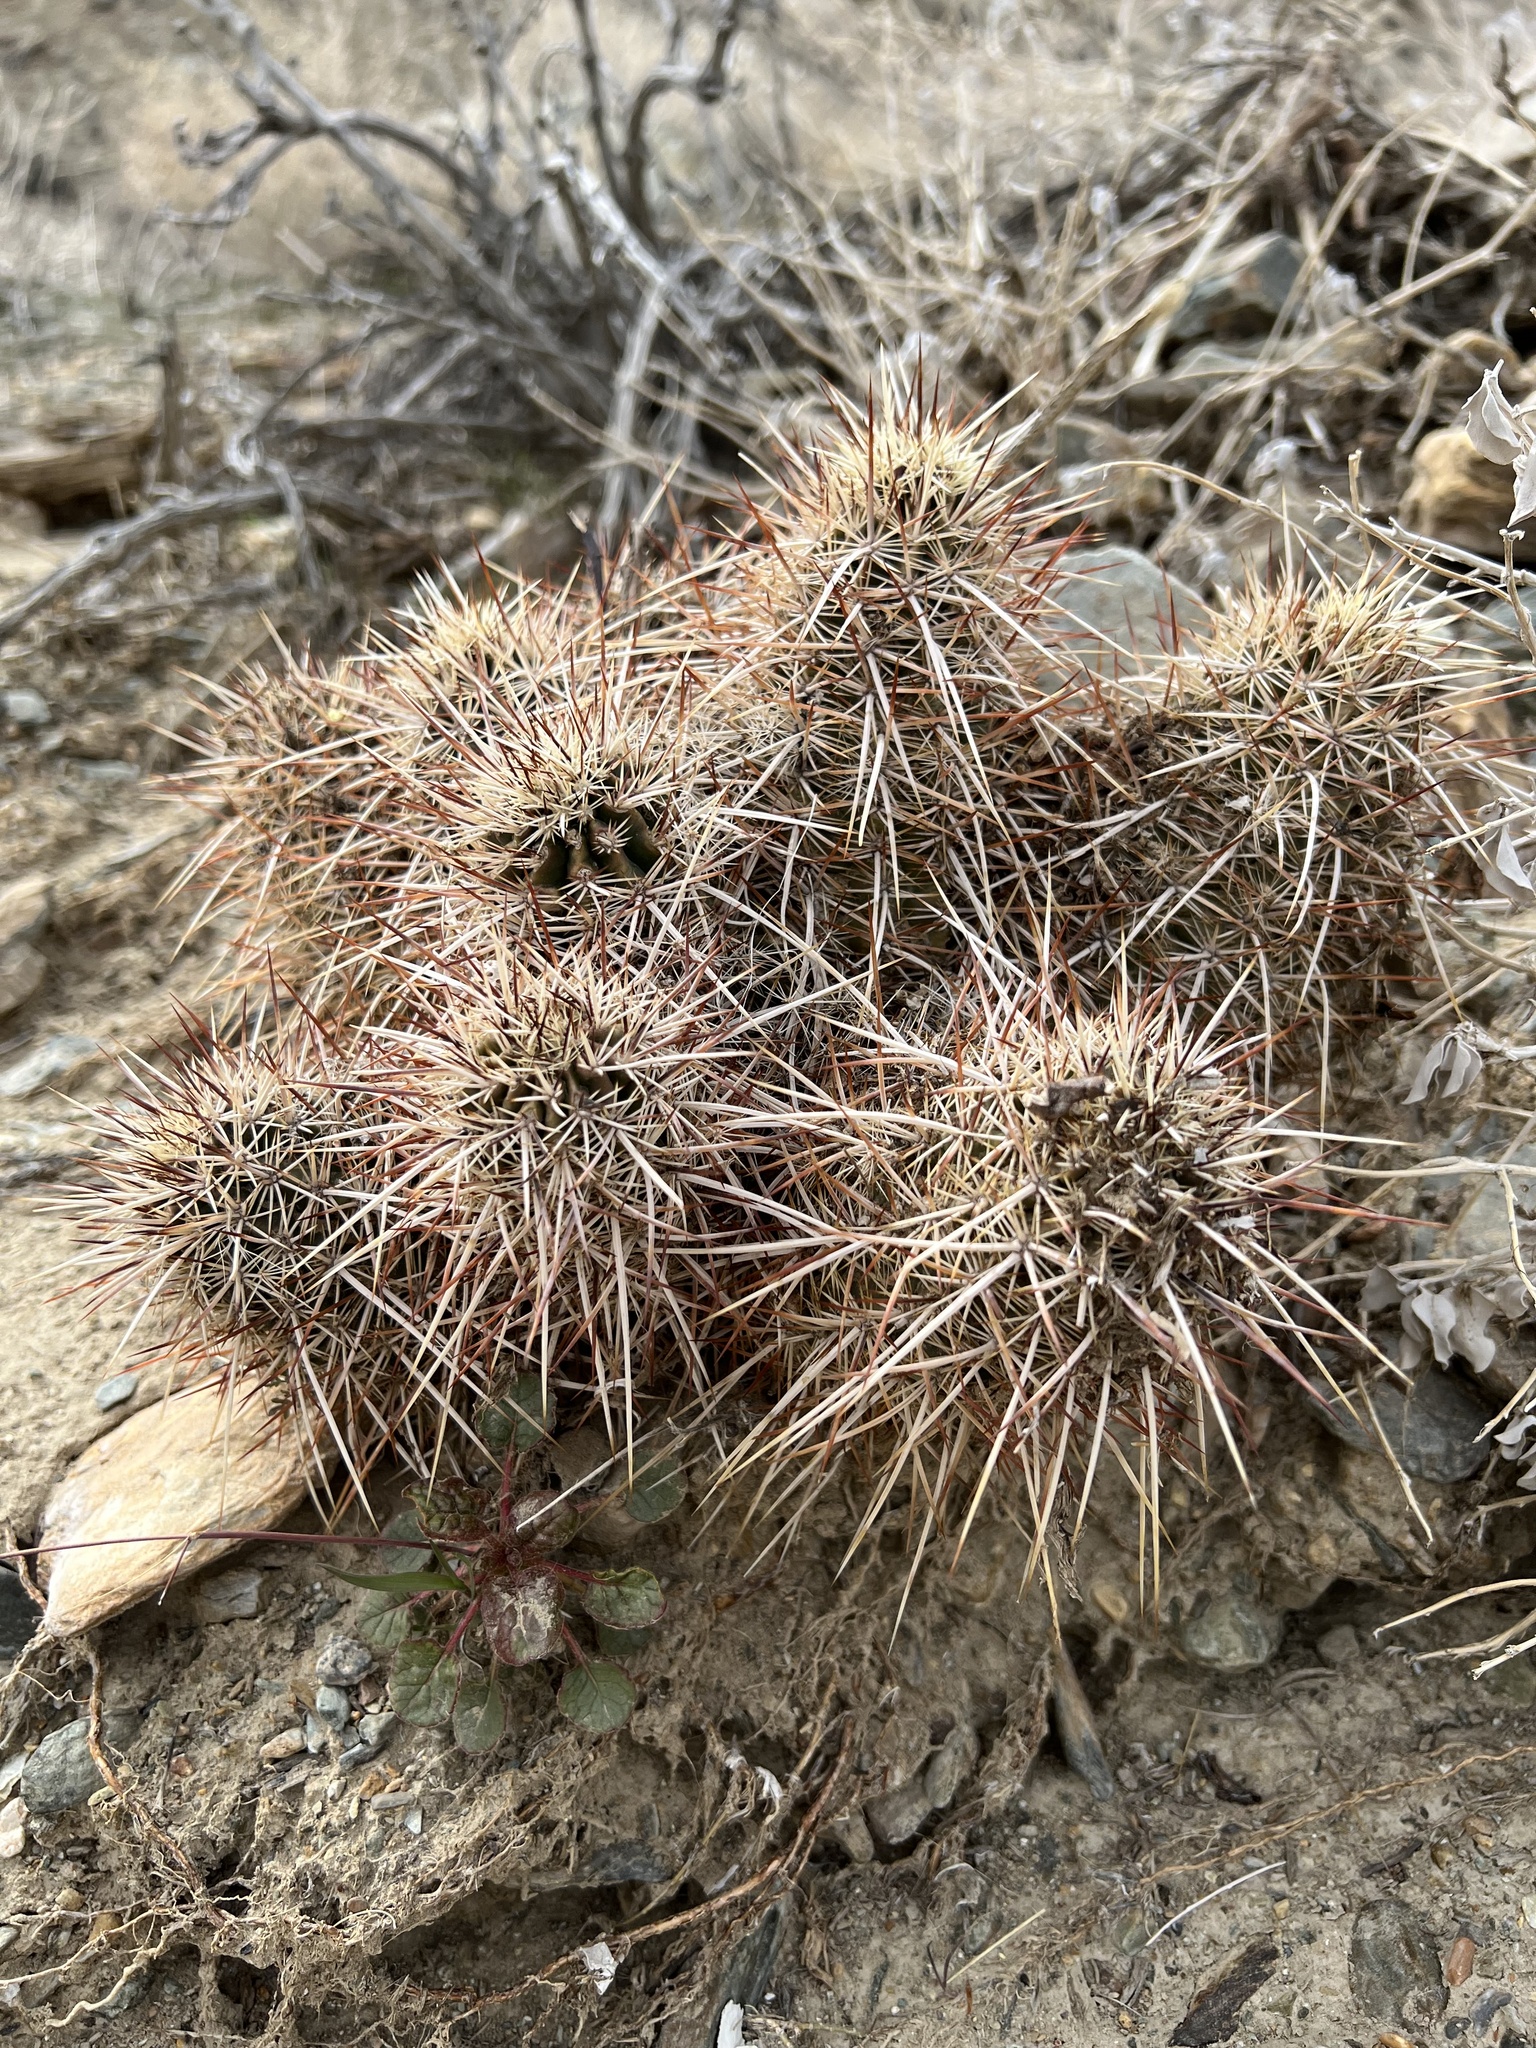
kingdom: Plantae
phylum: Tracheophyta
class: Magnoliopsida
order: Caryophyllales
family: Cactaceae
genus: Echinocereus
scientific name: Echinocereus engelmannii
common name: Engelmann's hedgehog cactus
